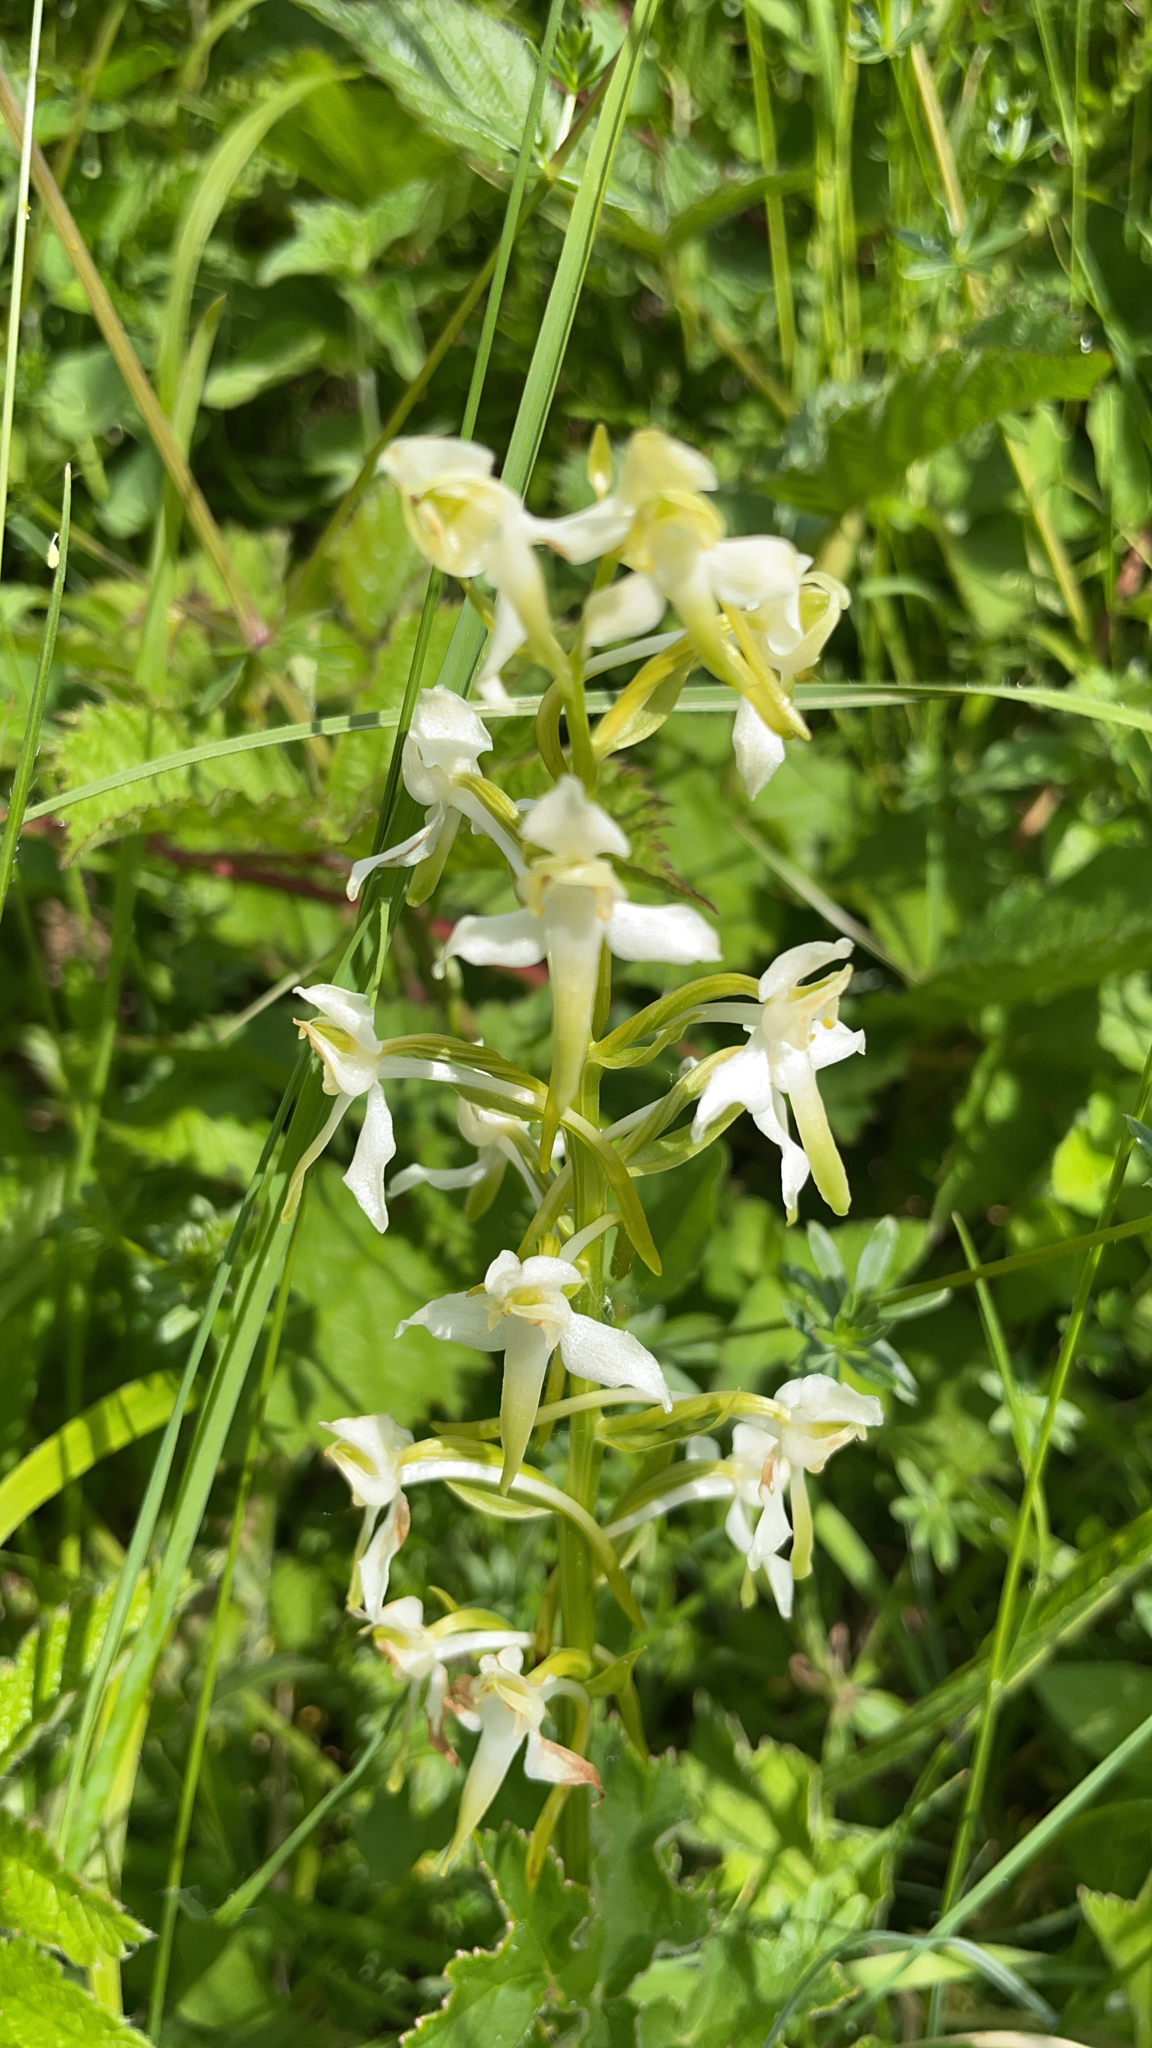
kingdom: Plantae
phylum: Tracheophyta
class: Liliopsida
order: Asparagales
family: Orchidaceae
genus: Platanthera
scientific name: Platanthera chlorantha
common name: Greater butterfly-orchid
